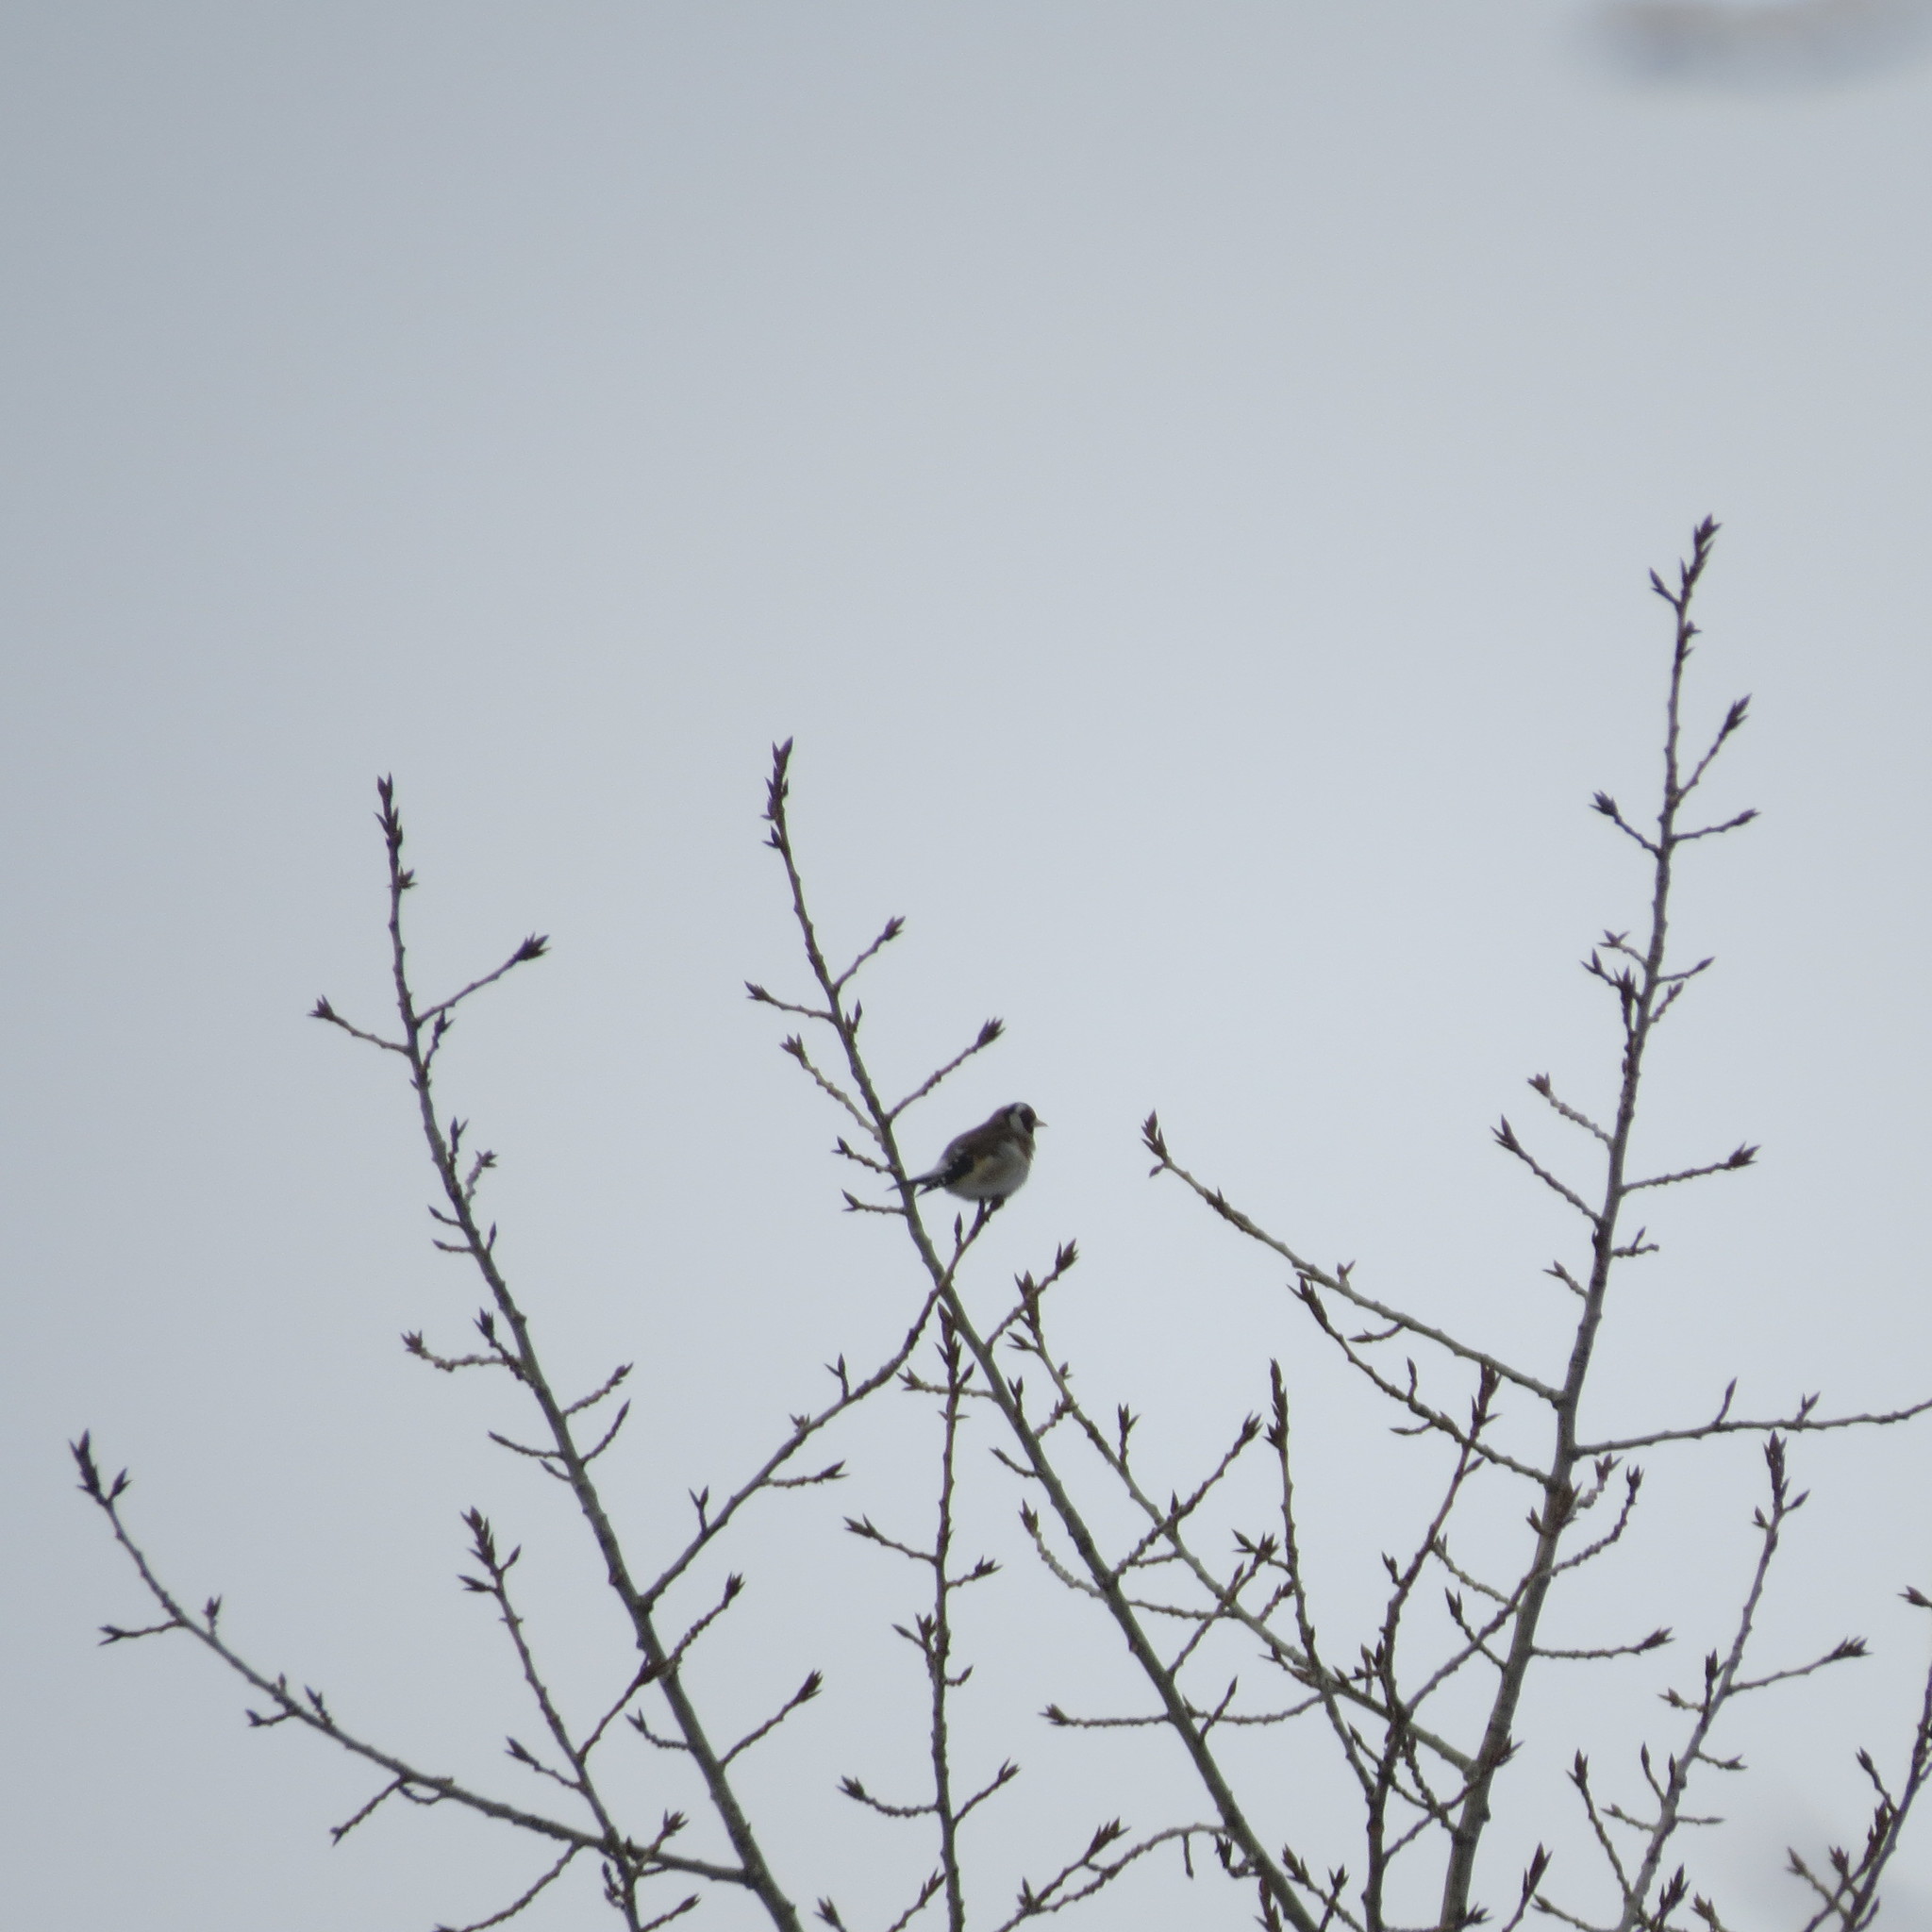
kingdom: Animalia
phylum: Chordata
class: Aves
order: Passeriformes
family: Fringillidae
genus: Carduelis
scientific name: Carduelis carduelis
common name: European goldfinch
